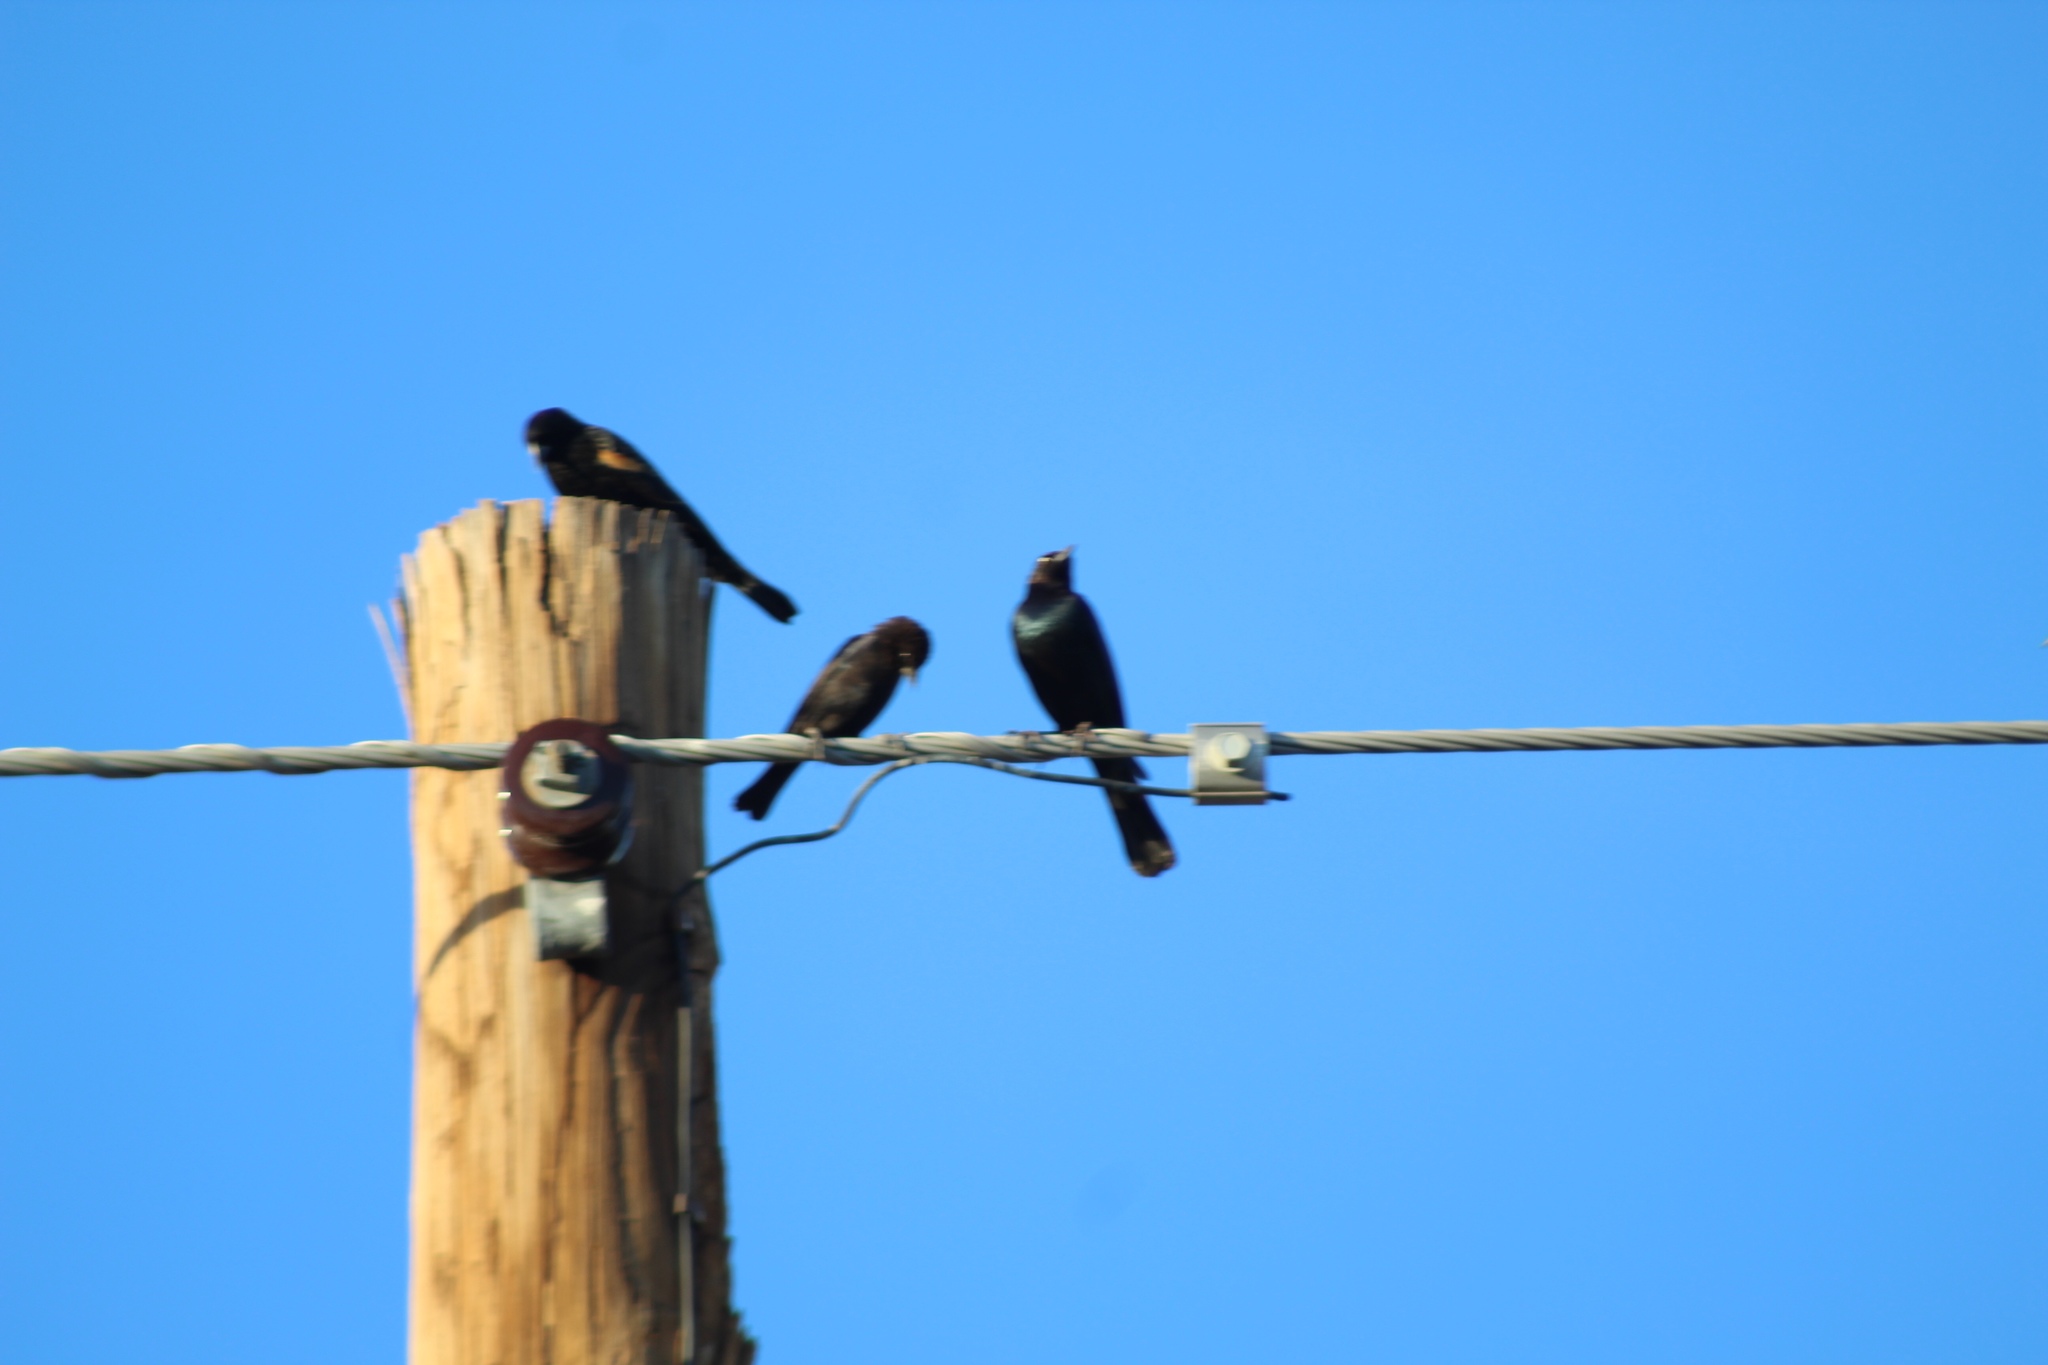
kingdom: Animalia
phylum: Chordata
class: Aves
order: Passeriformes
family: Icteridae
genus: Molothrus
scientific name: Molothrus ater
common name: Brown-headed cowbird
